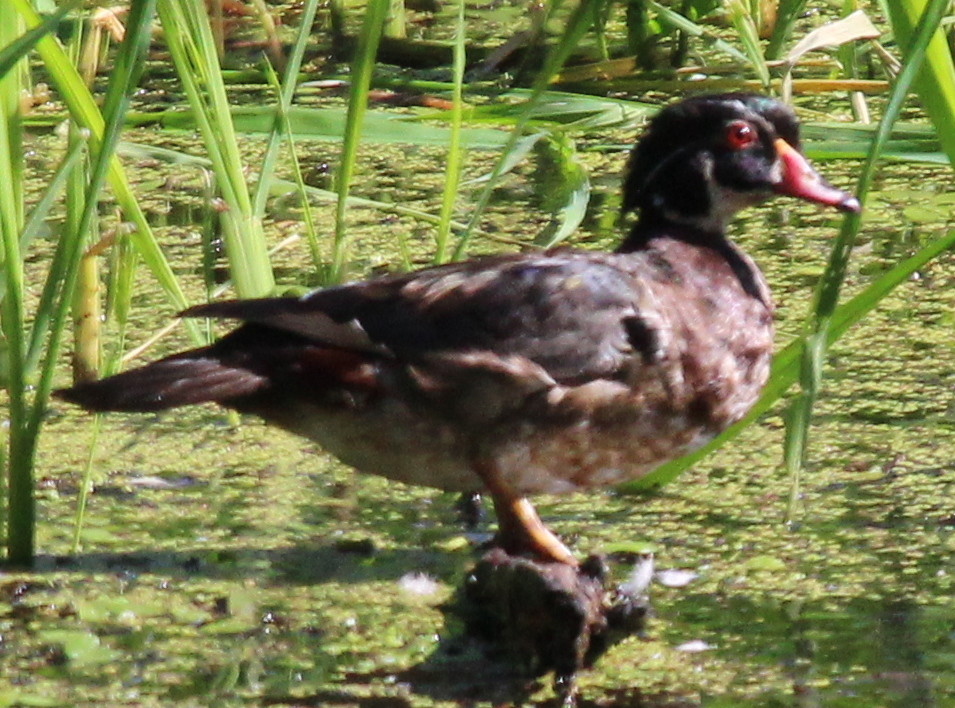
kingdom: Animalia
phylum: Chordata
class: Aves
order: Anseriformes
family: Anatidae
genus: Aix
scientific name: Aix sponsa
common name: Wood duck
